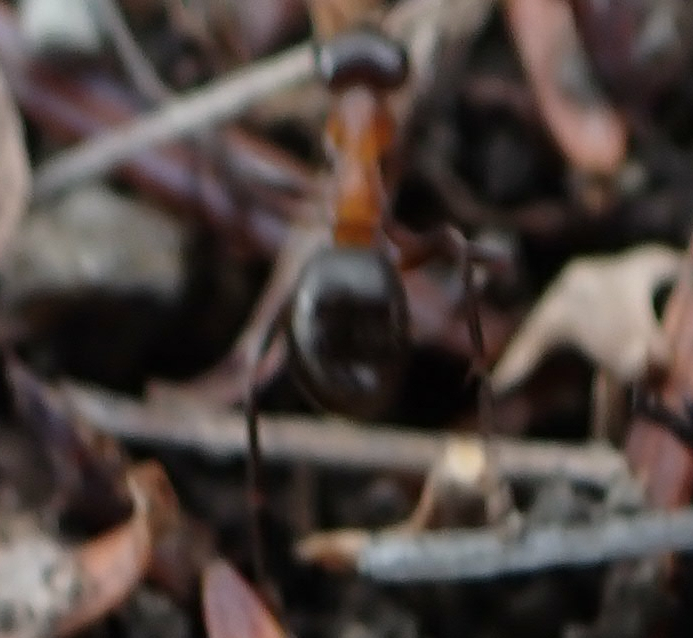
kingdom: Animalia
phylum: Arthropoda
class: Insecta
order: Hymenoptera
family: Formicidae
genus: Formica
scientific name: Formica ulkei
